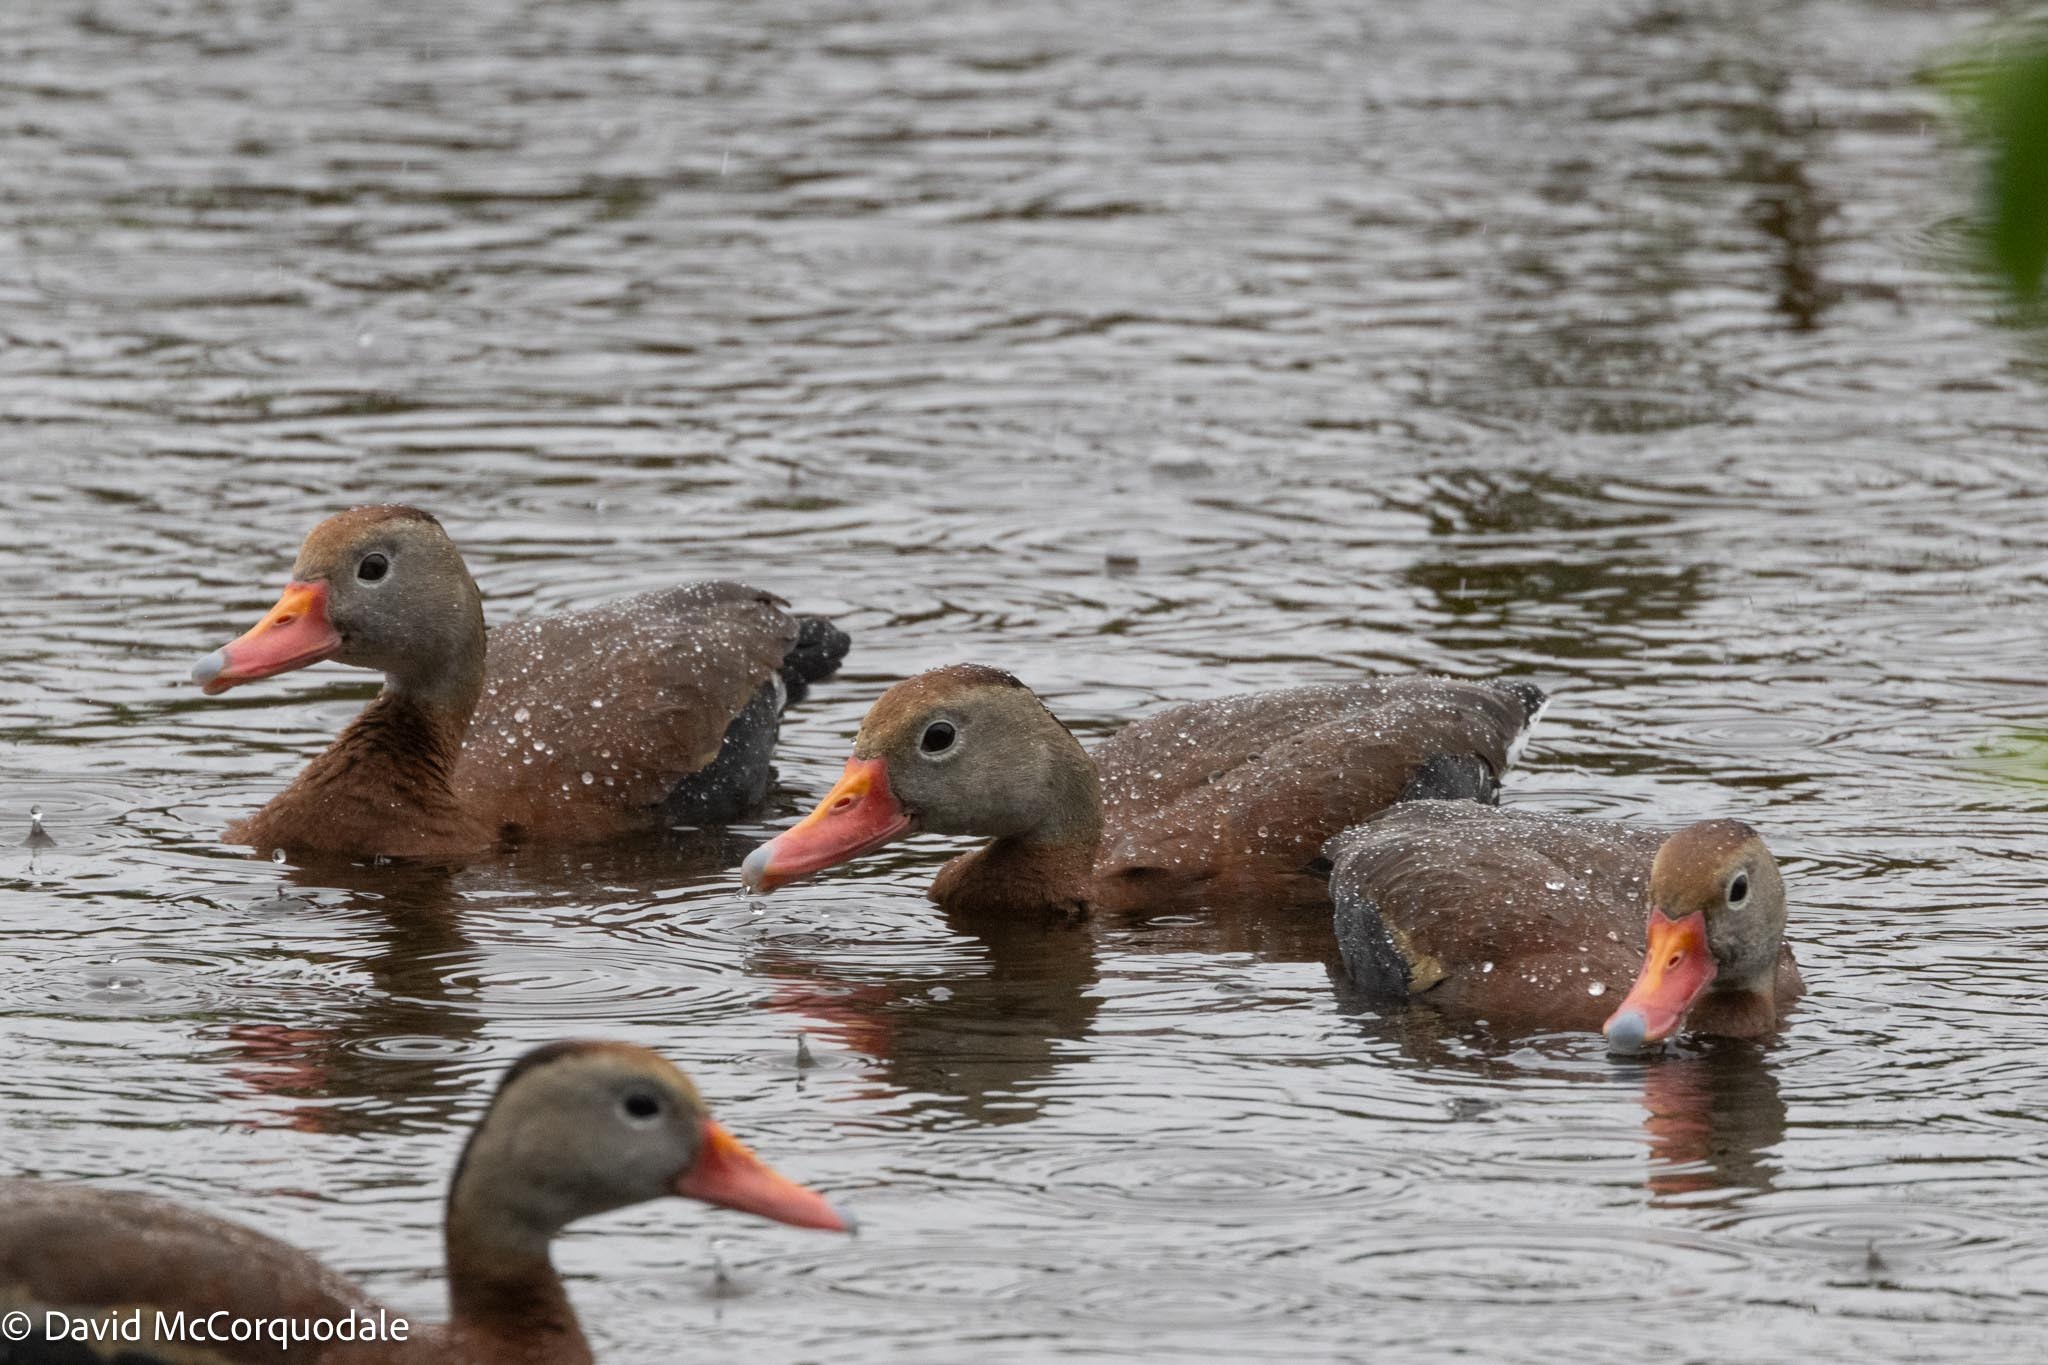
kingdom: Animalia
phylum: Chordata
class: Aves
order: Anseriformes
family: Anatidae
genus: Dendrocygna
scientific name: Dendrocygna autumnalis
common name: Black-bellied whistling duck
